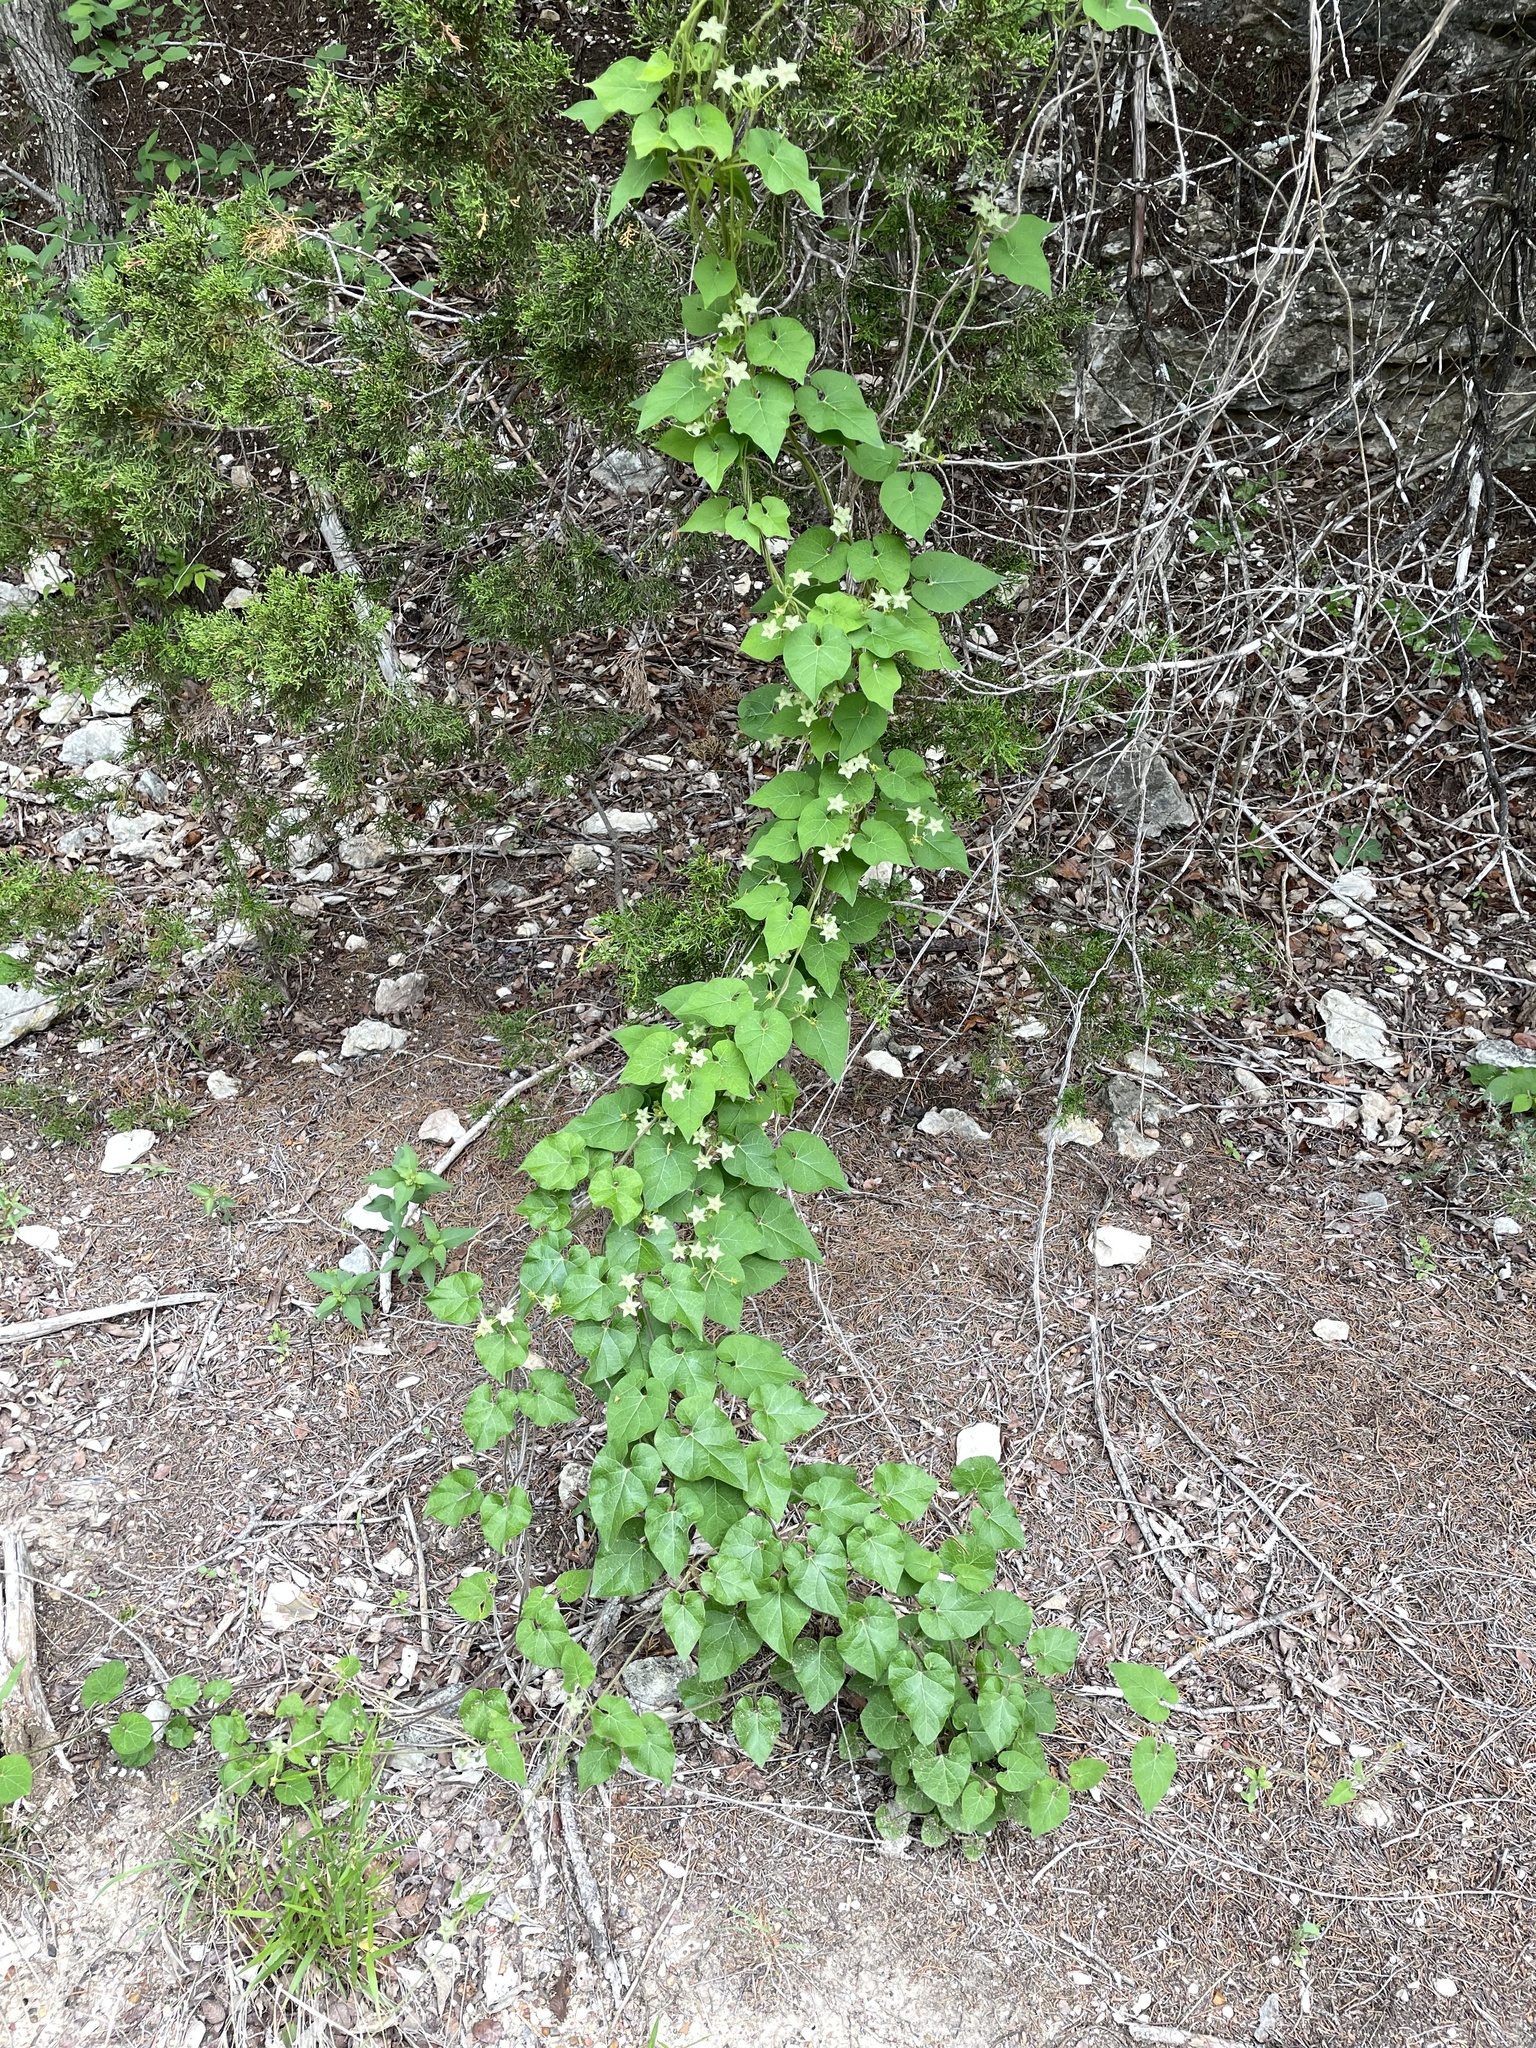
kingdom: Plantae
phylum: Tracheophyta
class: Magnoliopsida
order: Gentianales
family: Apocynaceae
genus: Dictyanthus
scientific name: Dictyanthus reticulatus
